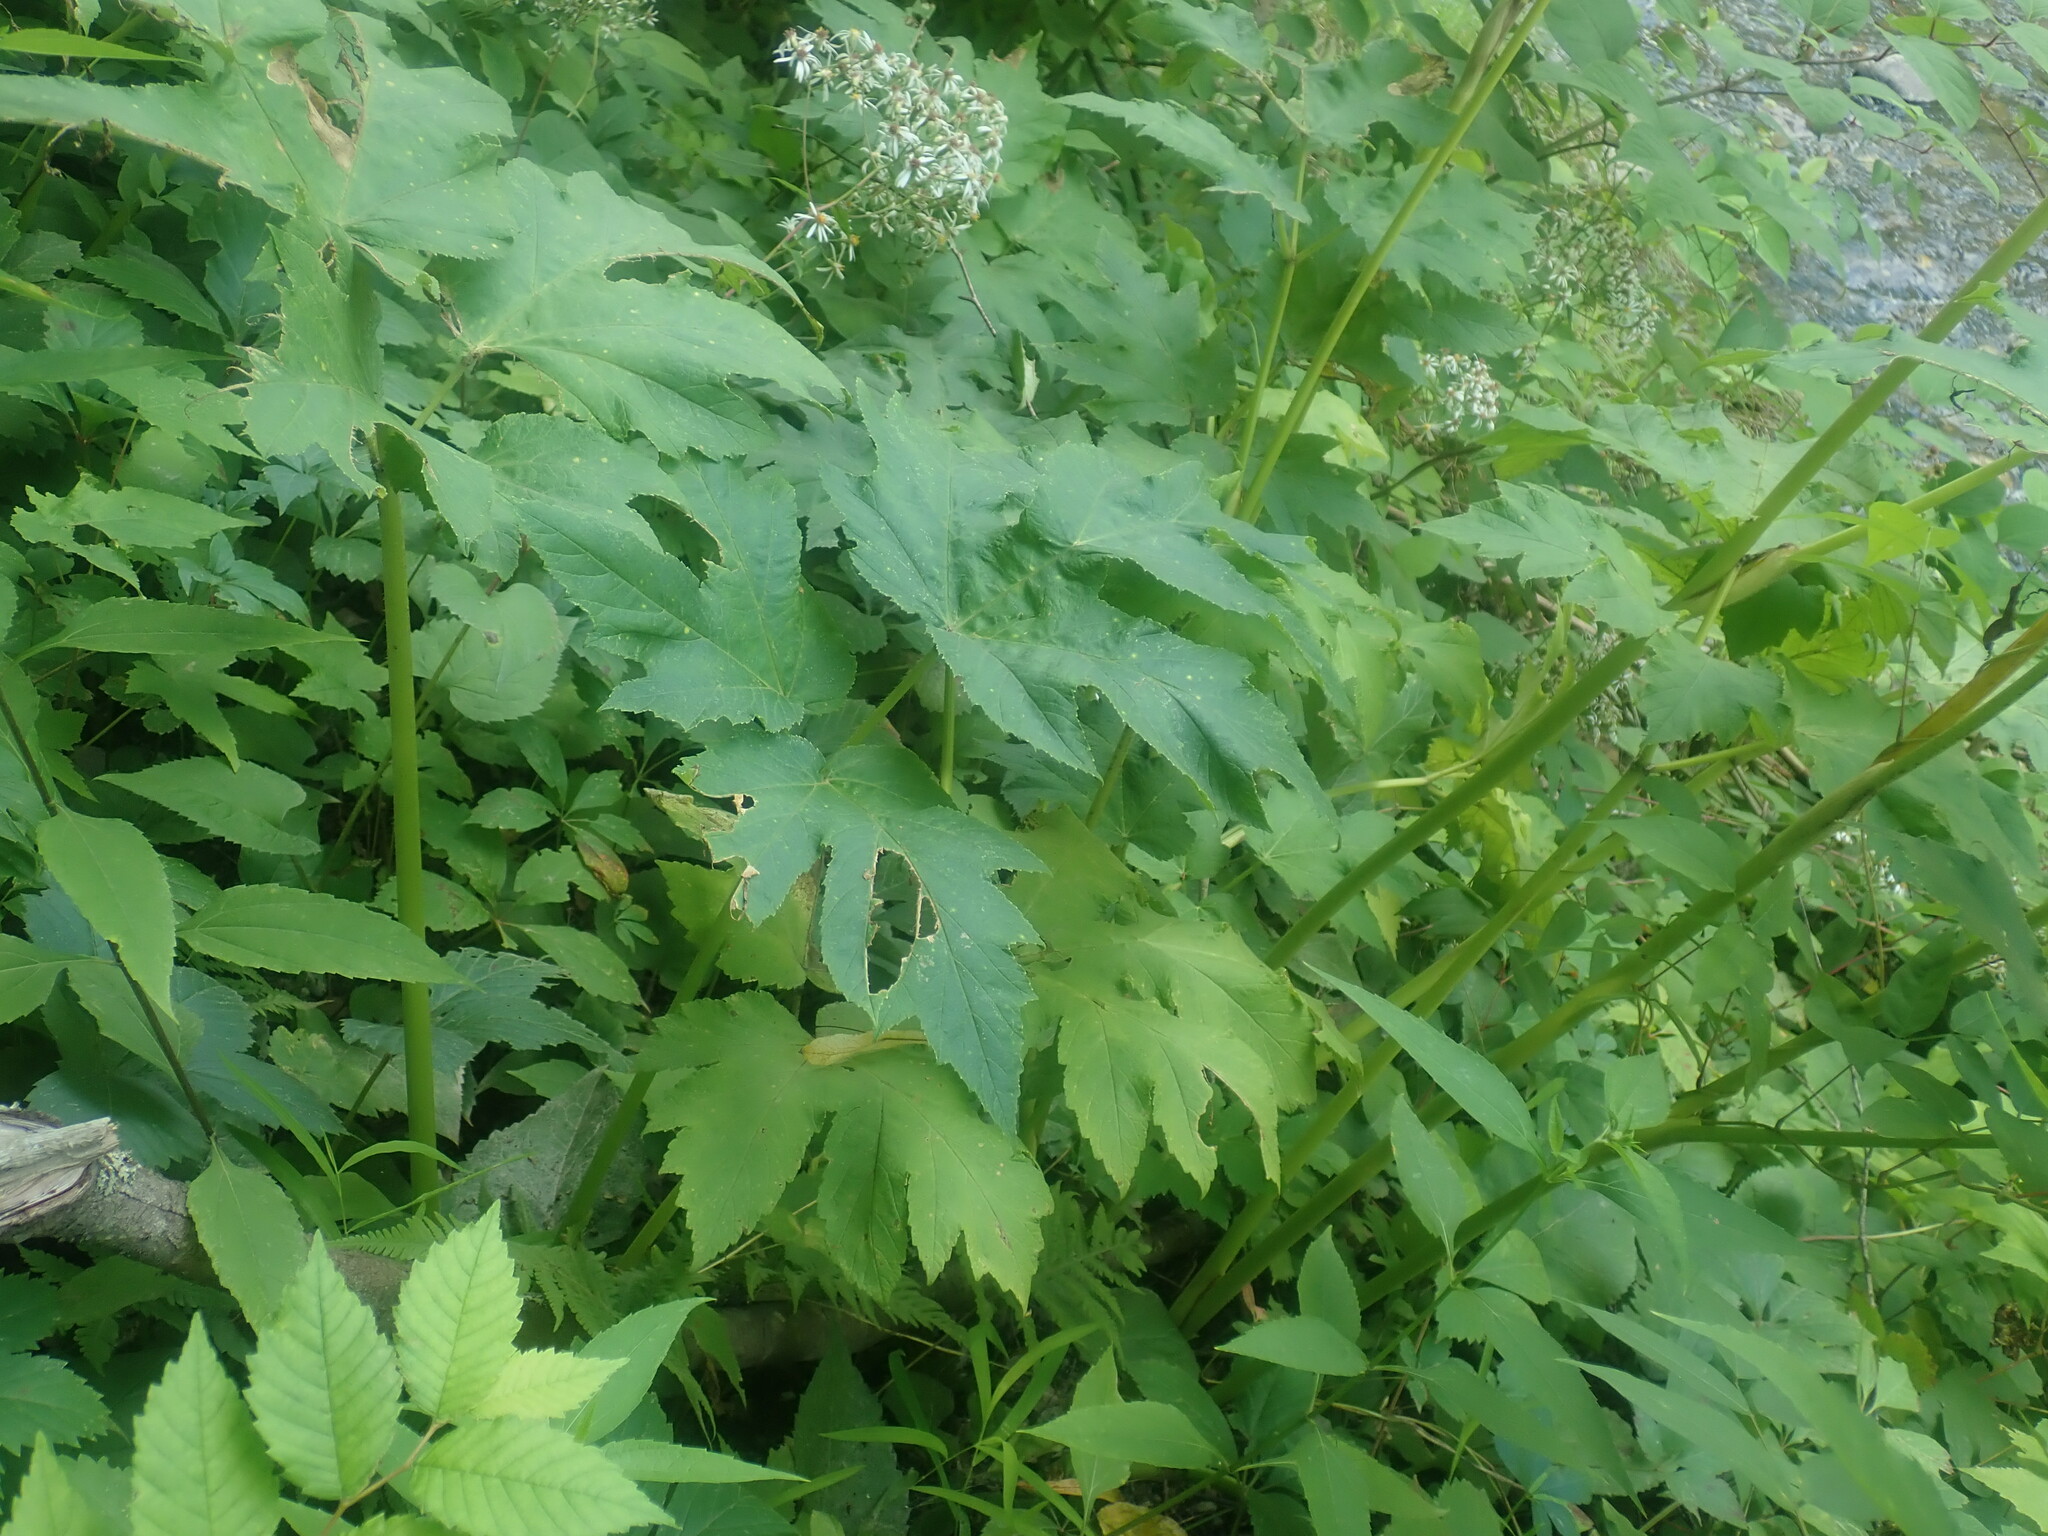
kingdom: Plantae
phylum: Tracheophyta
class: Magnoliopsida
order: Apiales
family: Apiaceae
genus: Heracleum
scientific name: Heracleum maximum
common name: American cow parsnip
